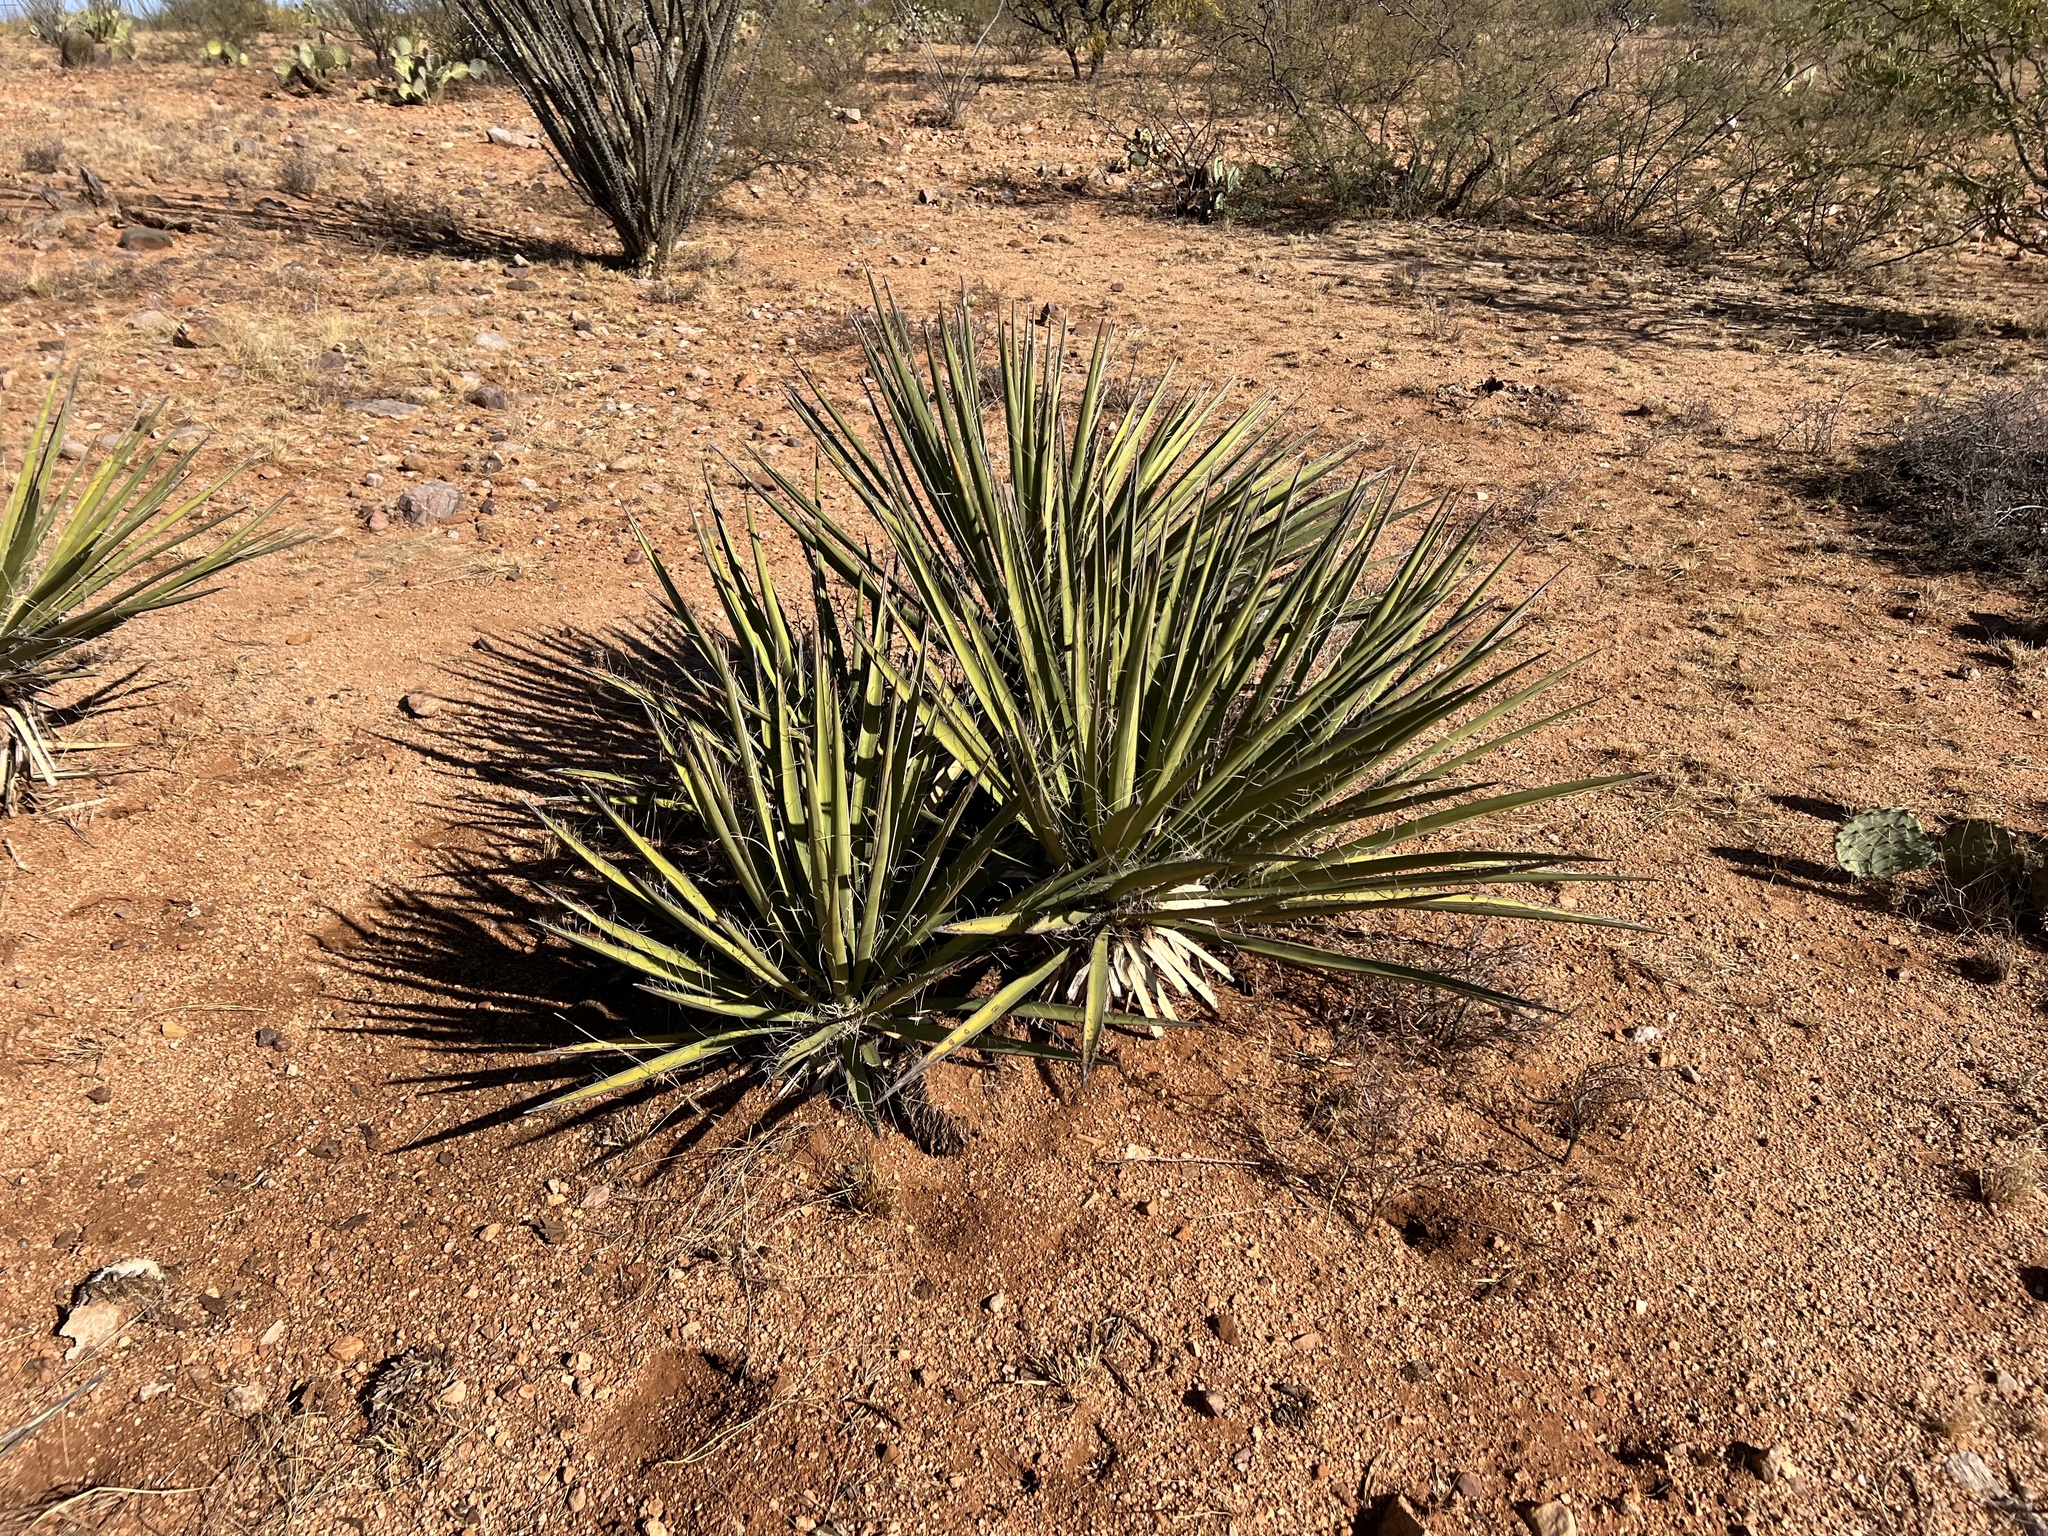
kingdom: Plantae
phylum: Tracheophyta
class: Liliopsida
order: Asparagales
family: Asparagaceae
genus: Yucca
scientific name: Yucca baccata
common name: Banana yucca
